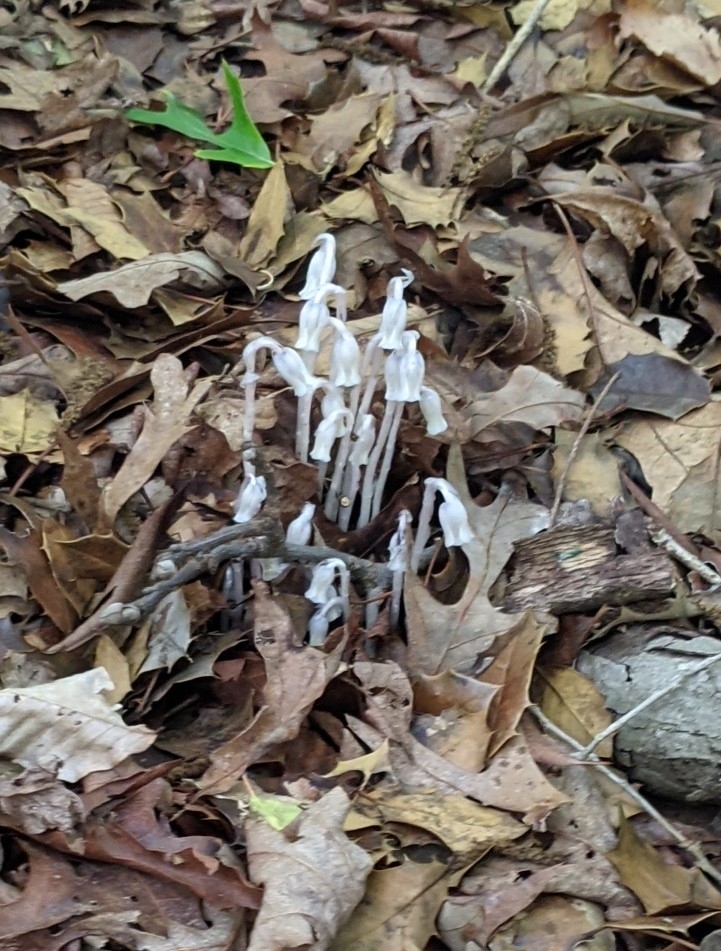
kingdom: Plantae
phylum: Tracheophyta
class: Magnoliopsida
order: Ericales
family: Ericaceae
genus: Monotropa
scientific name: Monotropa uniflora
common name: Convulsion root
